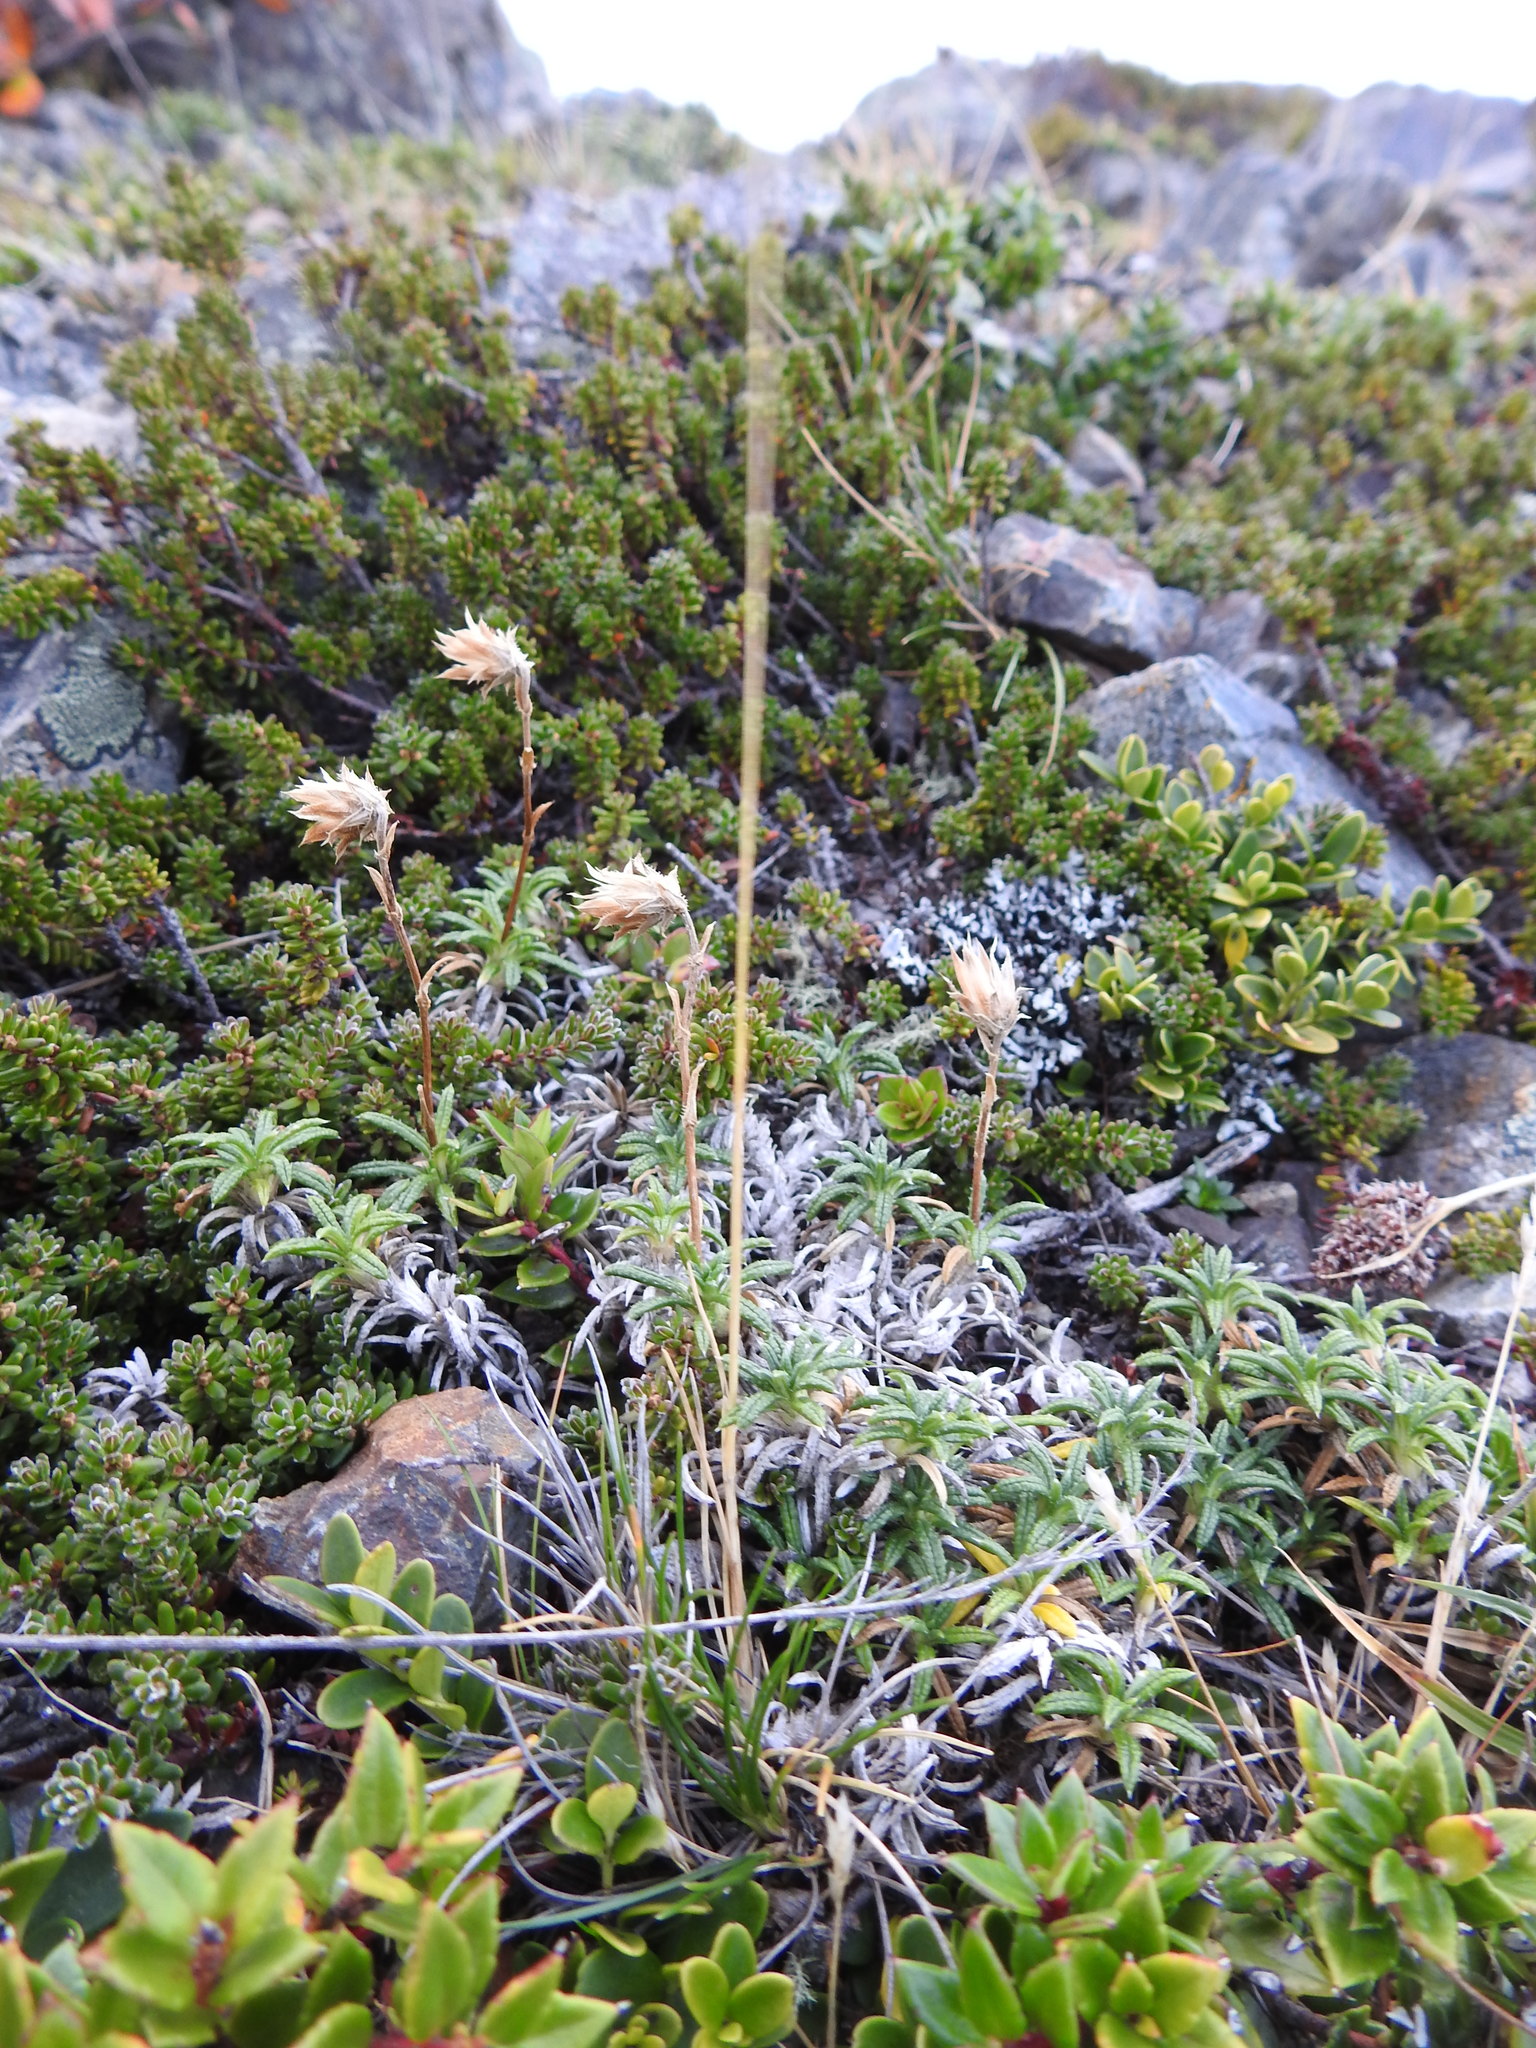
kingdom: Plantae
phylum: Tracheophyta
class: Magnoliopsida
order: Asterales
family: Asteraceae
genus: Perezia
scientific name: Perezia recurvata
